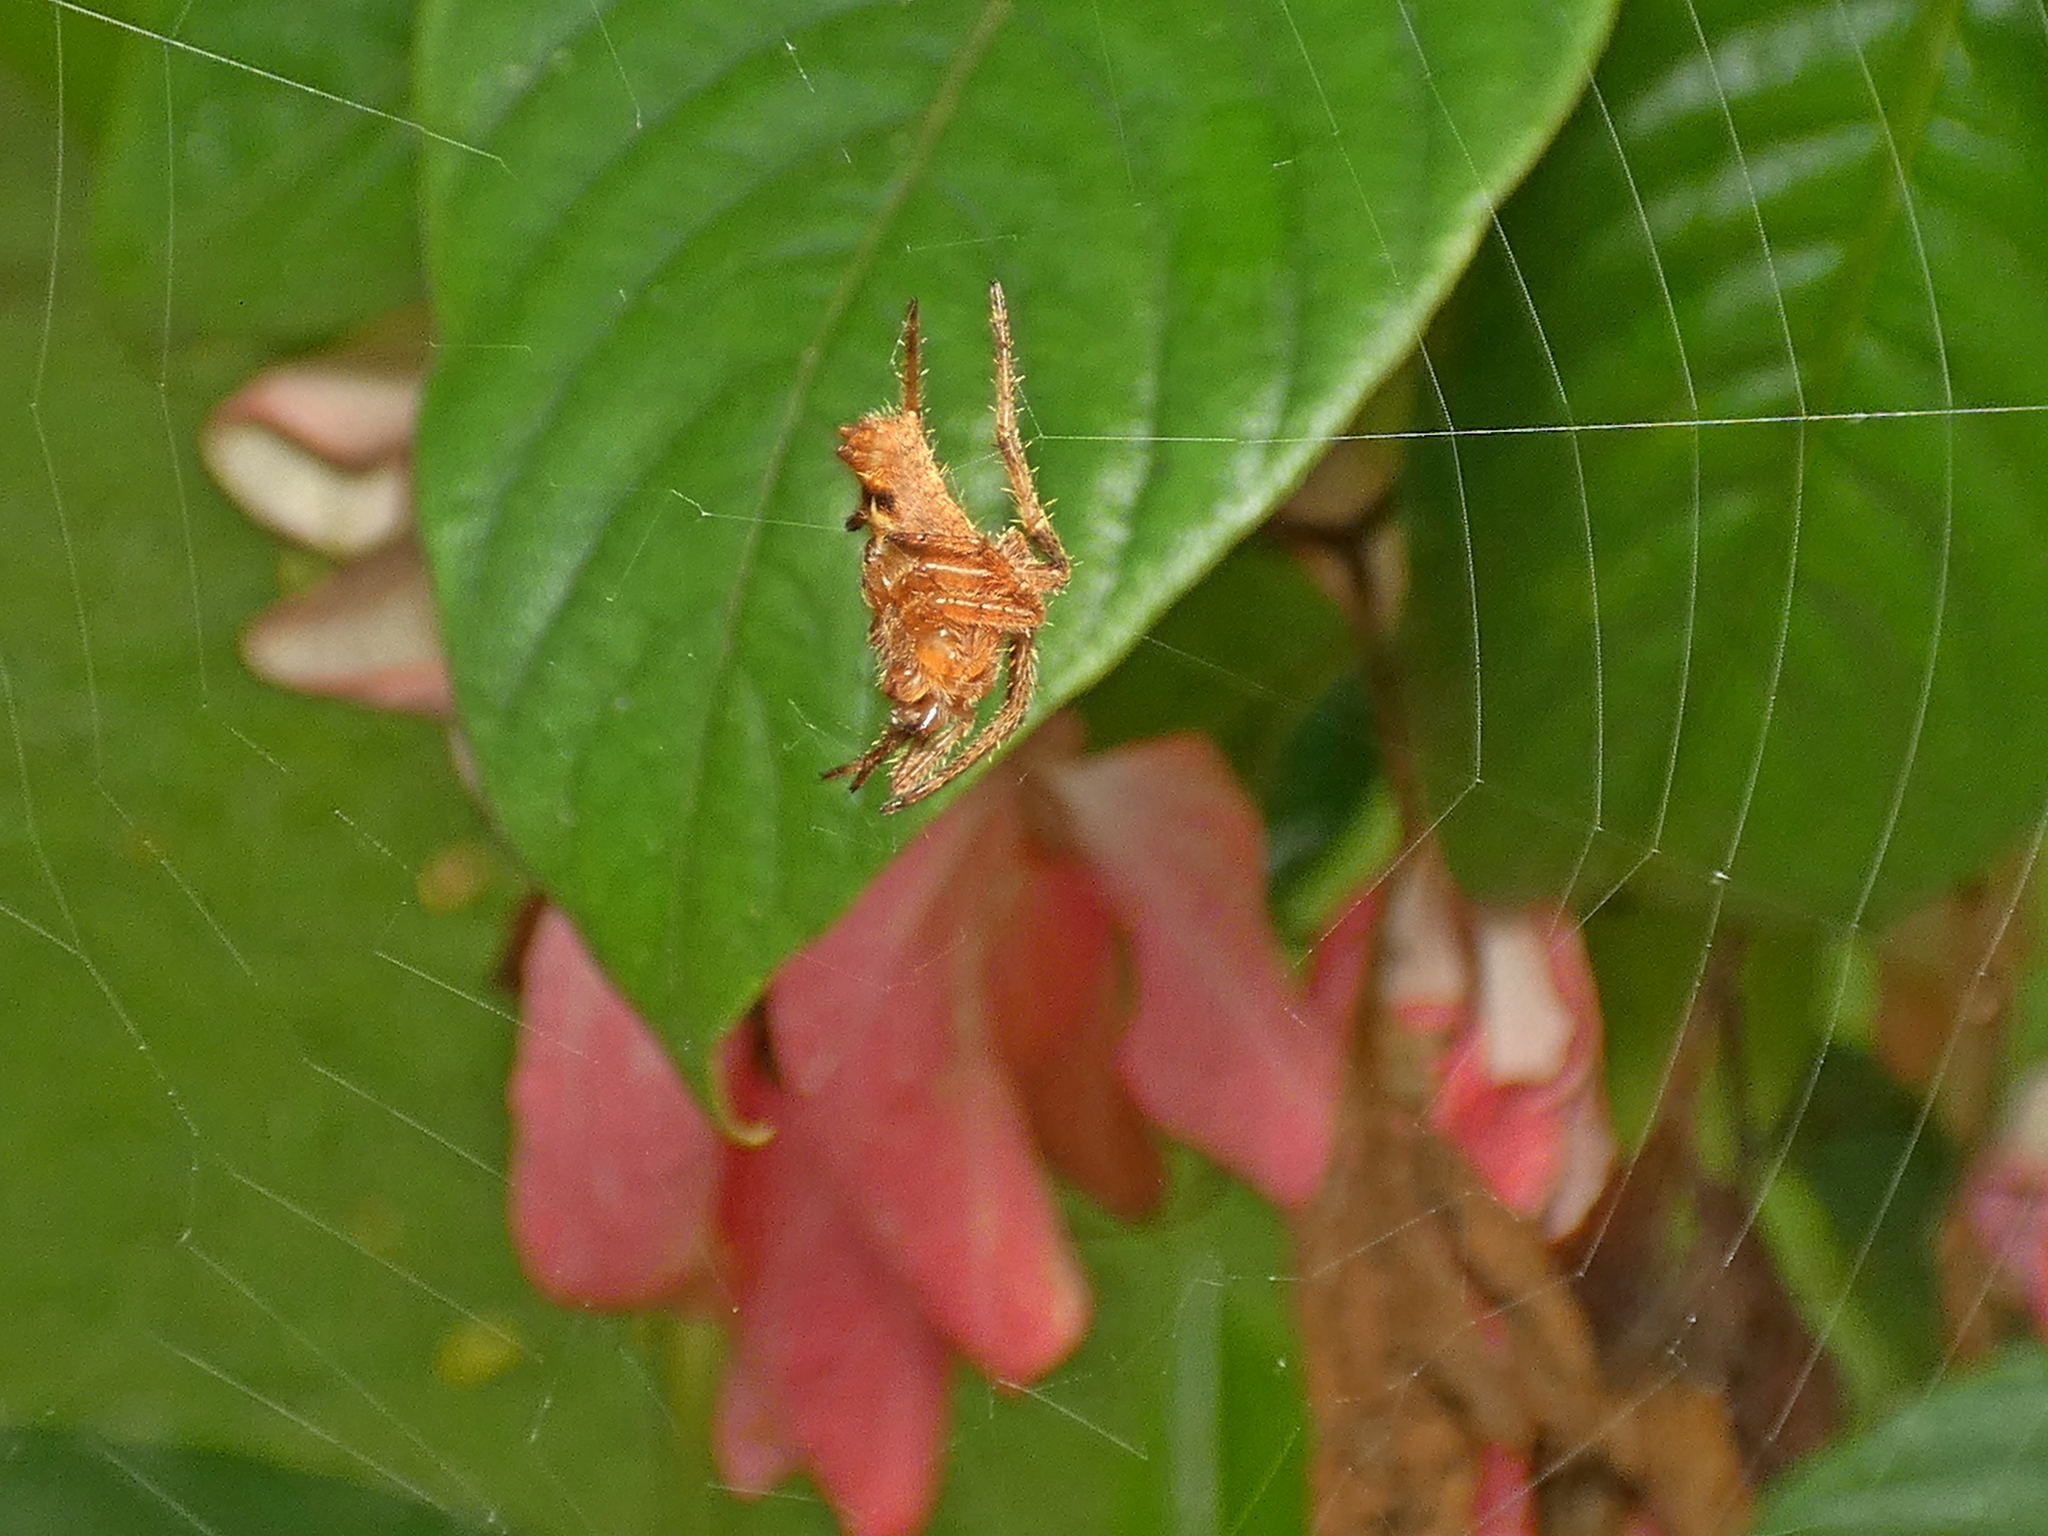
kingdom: Animalia
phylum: Arthropoda
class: Arachnida
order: Araneae
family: Araneidae
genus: Eriophora
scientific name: Eriophora edax
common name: Orb weavers
